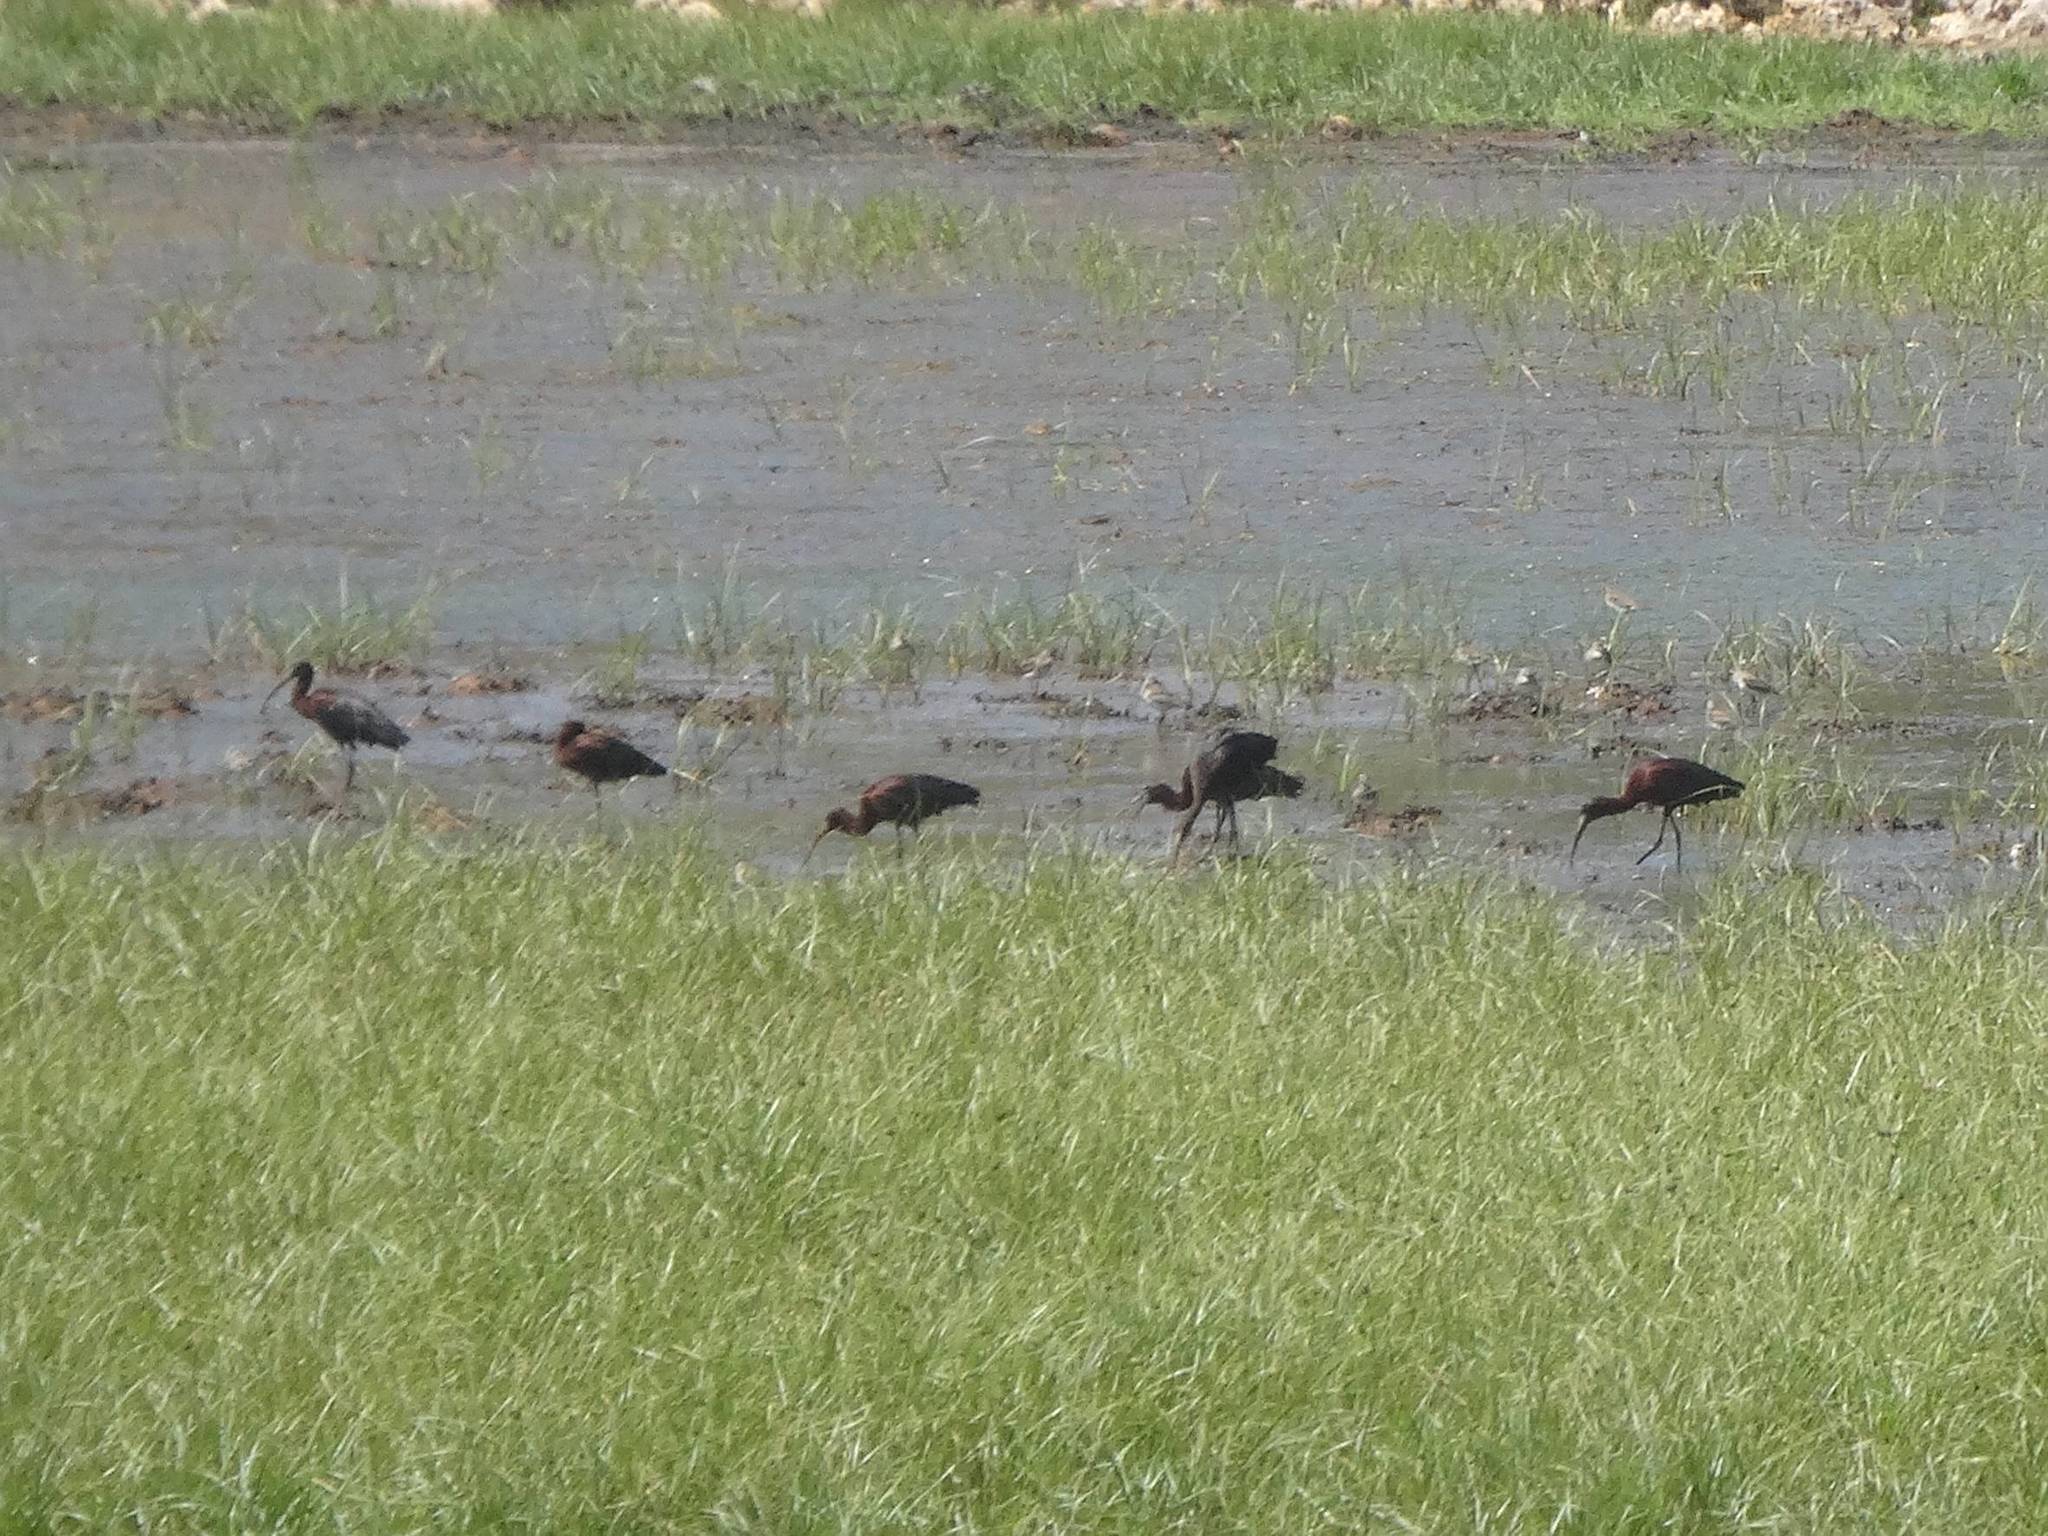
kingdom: Animalia
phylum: Chordata
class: Aves
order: Pelecaniformes
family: Threskiornithidae
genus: Plegadis
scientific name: Plegadis falcinellus
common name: Glossy ibis
